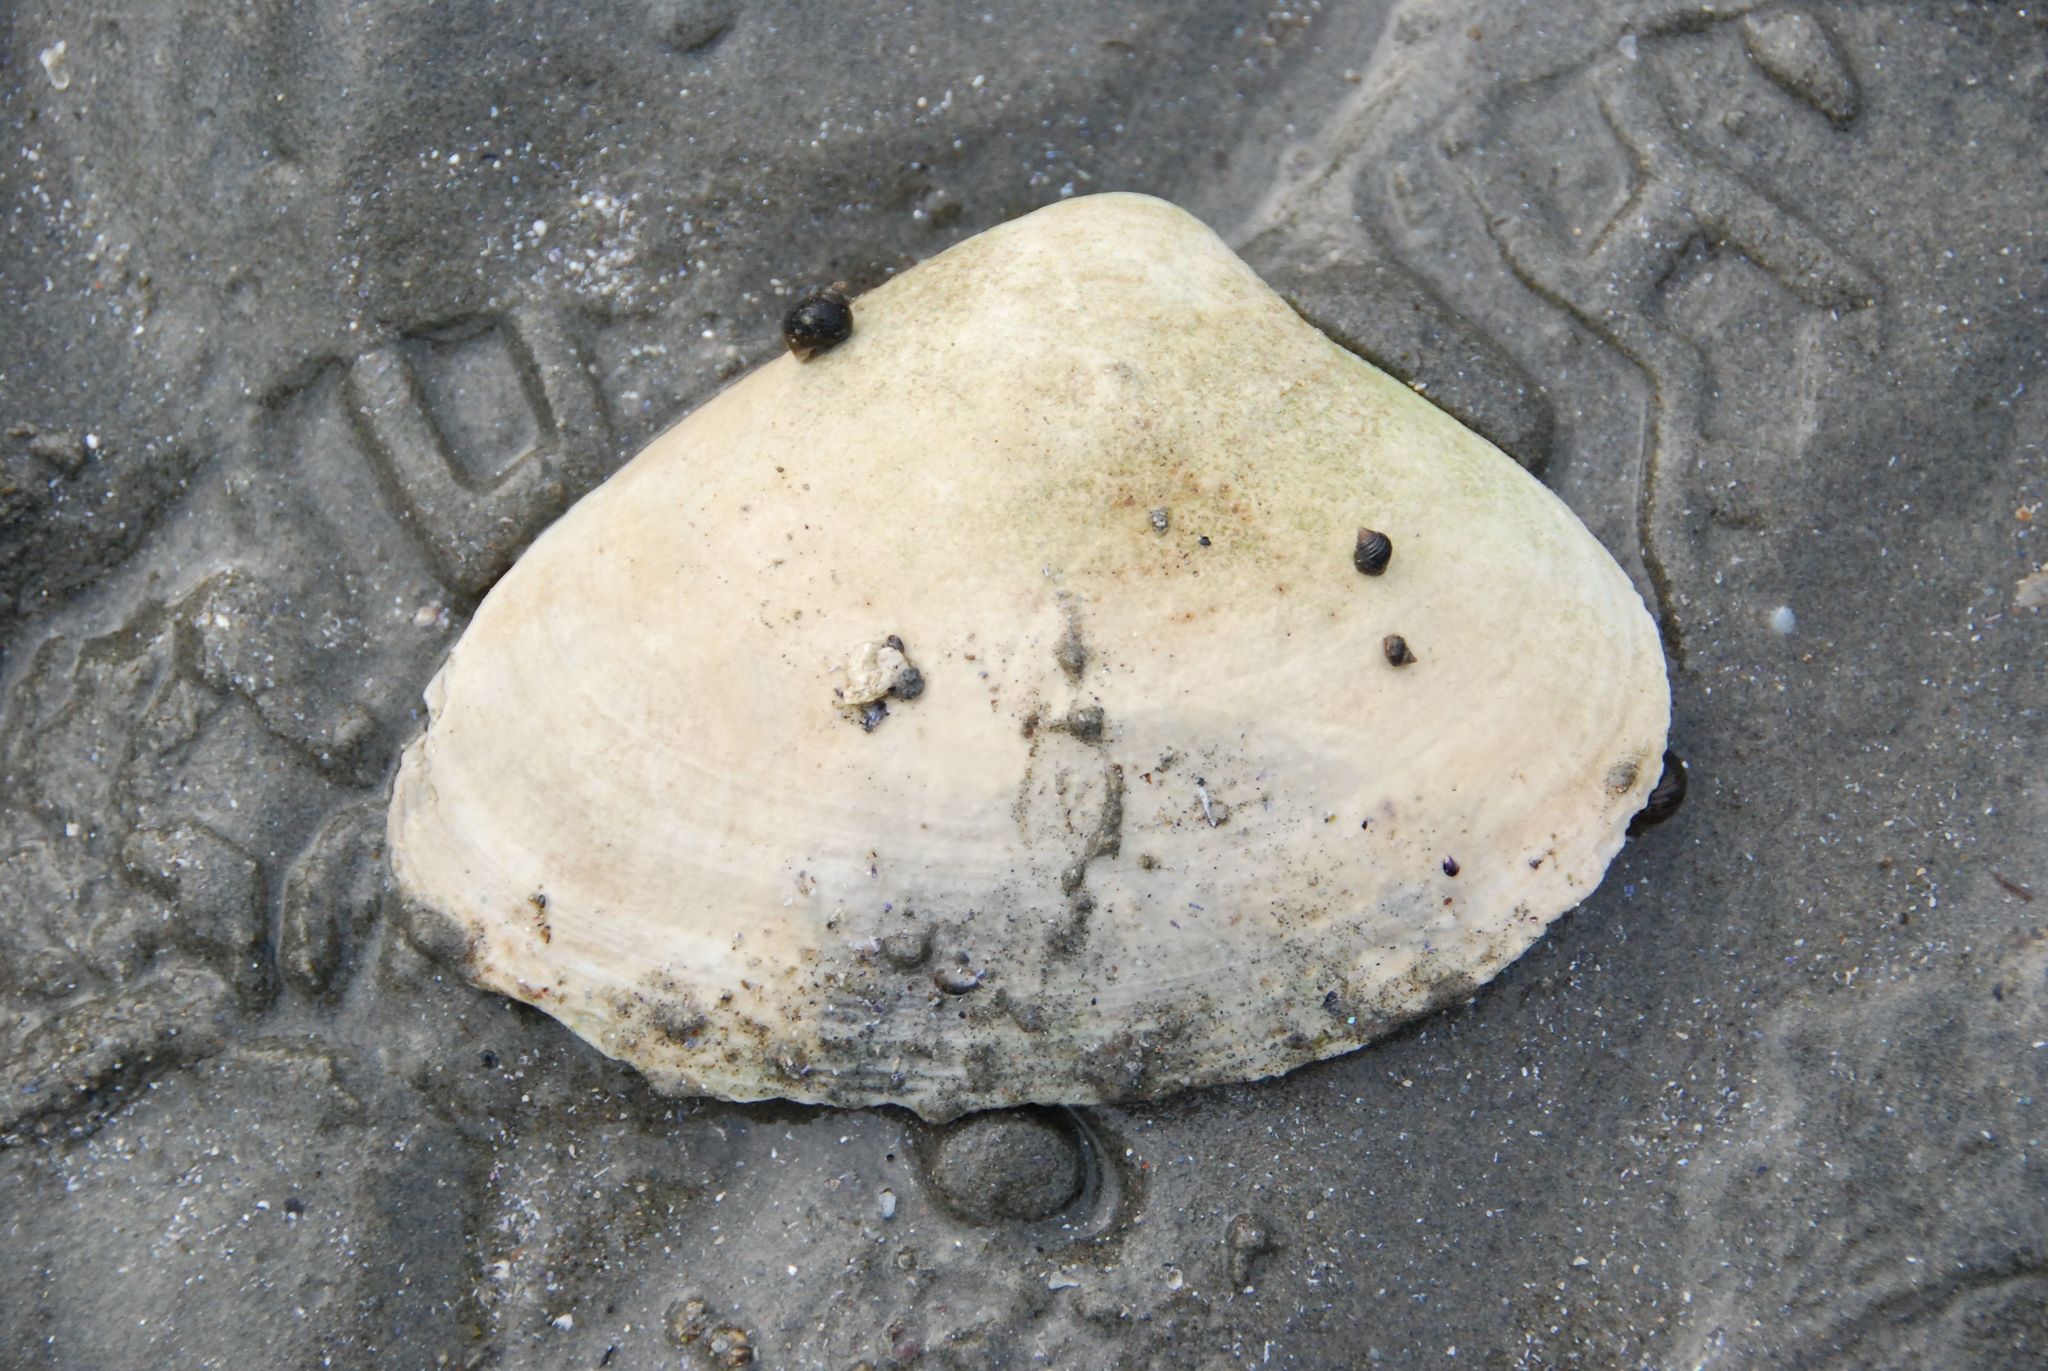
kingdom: Animalia
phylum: Mollusca
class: Bivalvia
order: Venerida
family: Mactridae
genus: Spisula
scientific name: Spisula solidissima
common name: Atlantic surf clam
